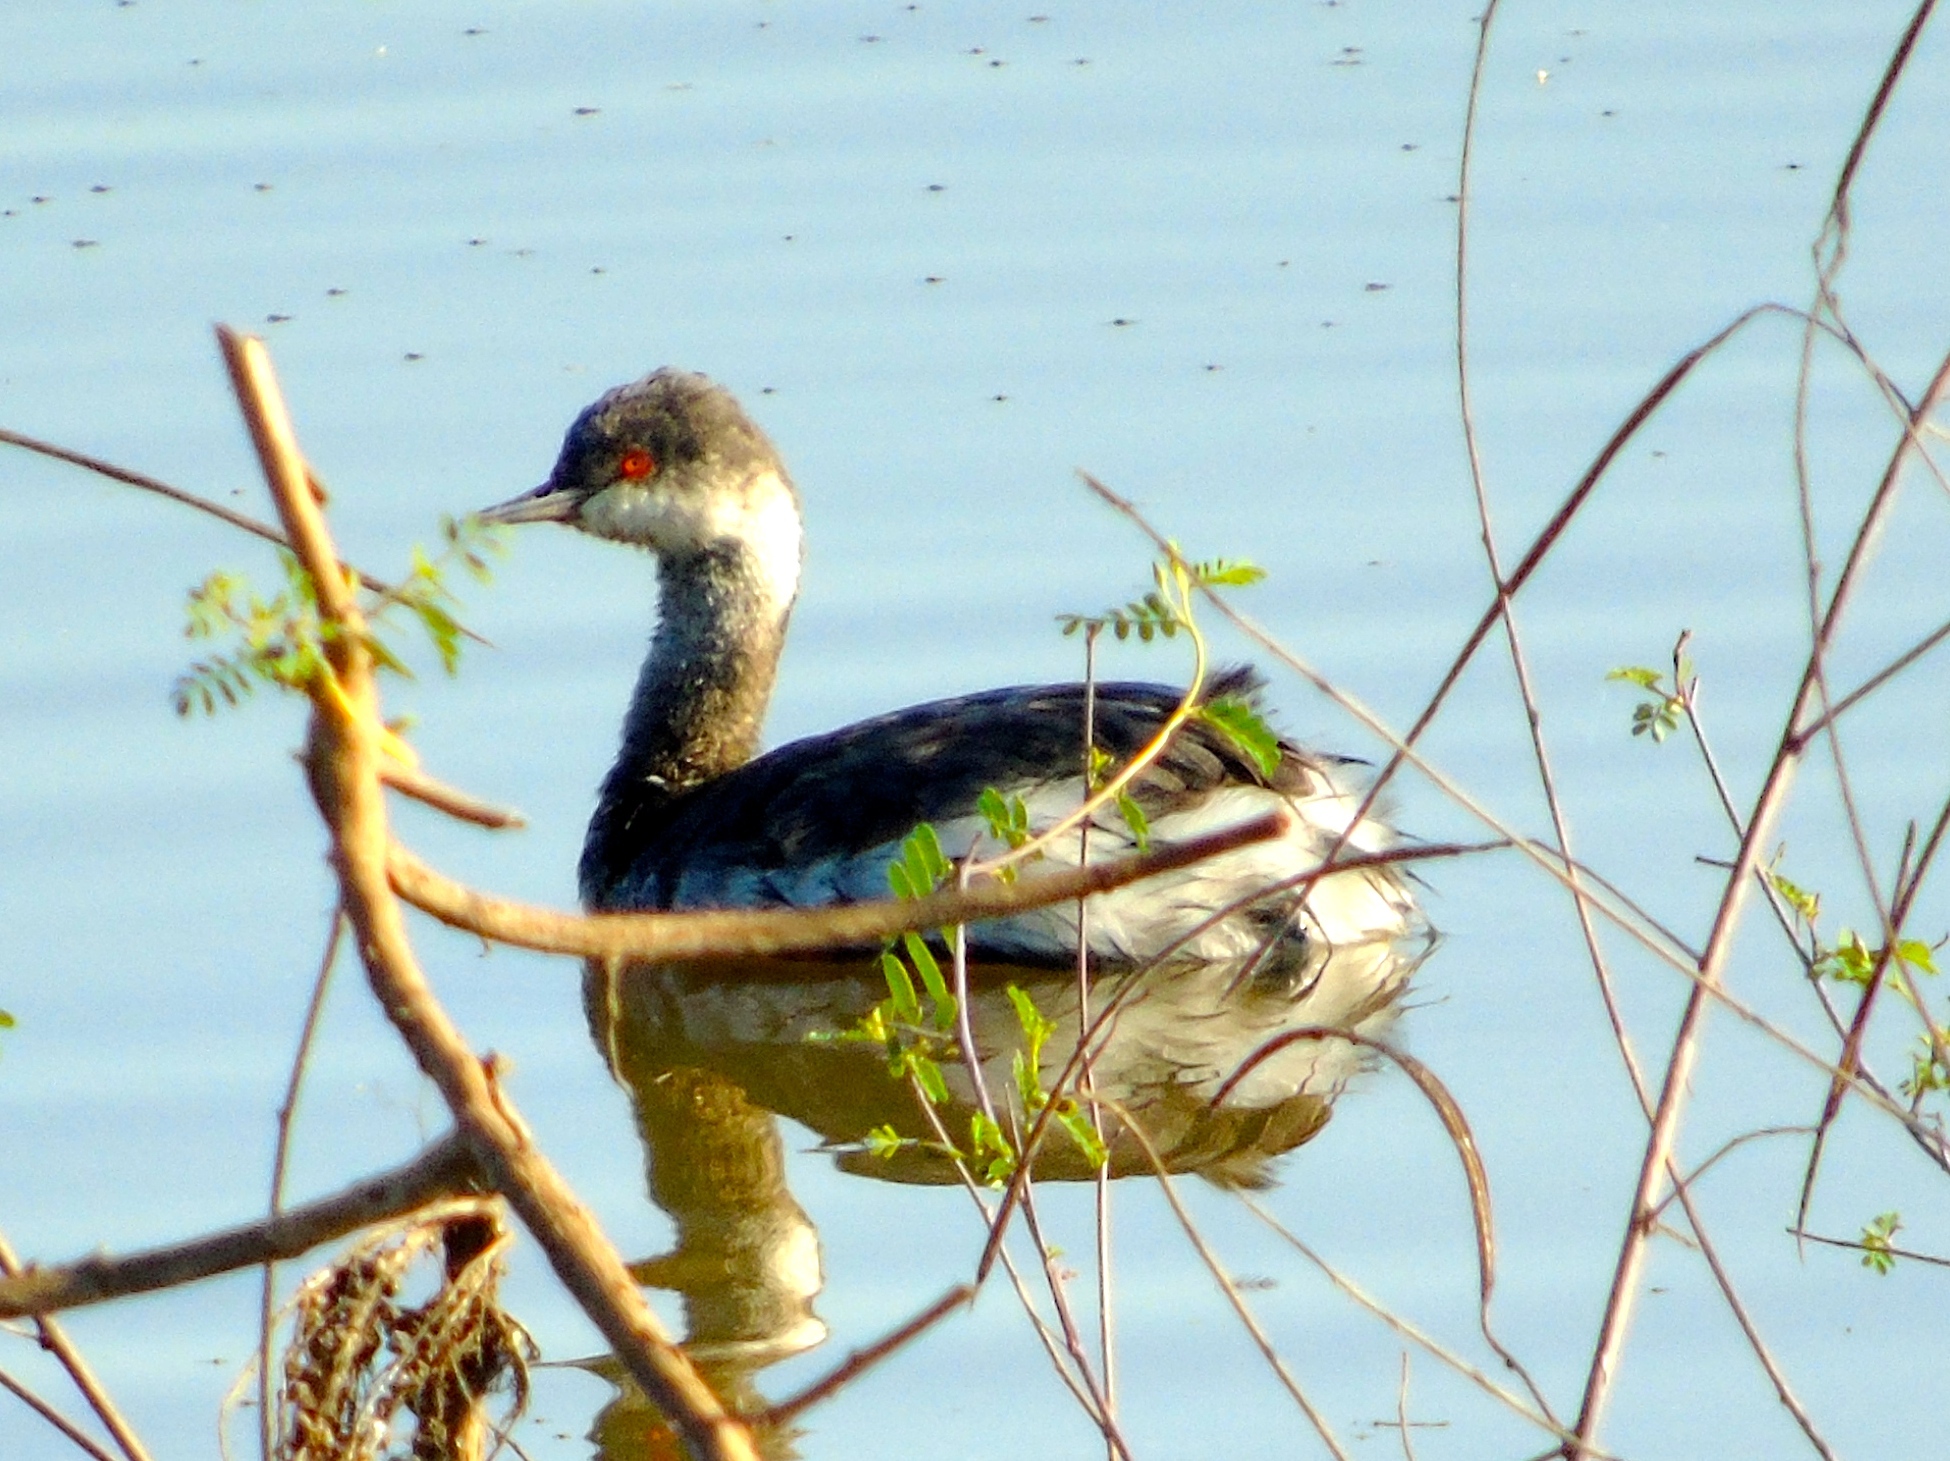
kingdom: Animalia
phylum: Chordata
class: Aves
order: Podicipediformes
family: Podicipedidae
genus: Podiceps
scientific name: Podiceps nigricollis
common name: Black-necked grebe
